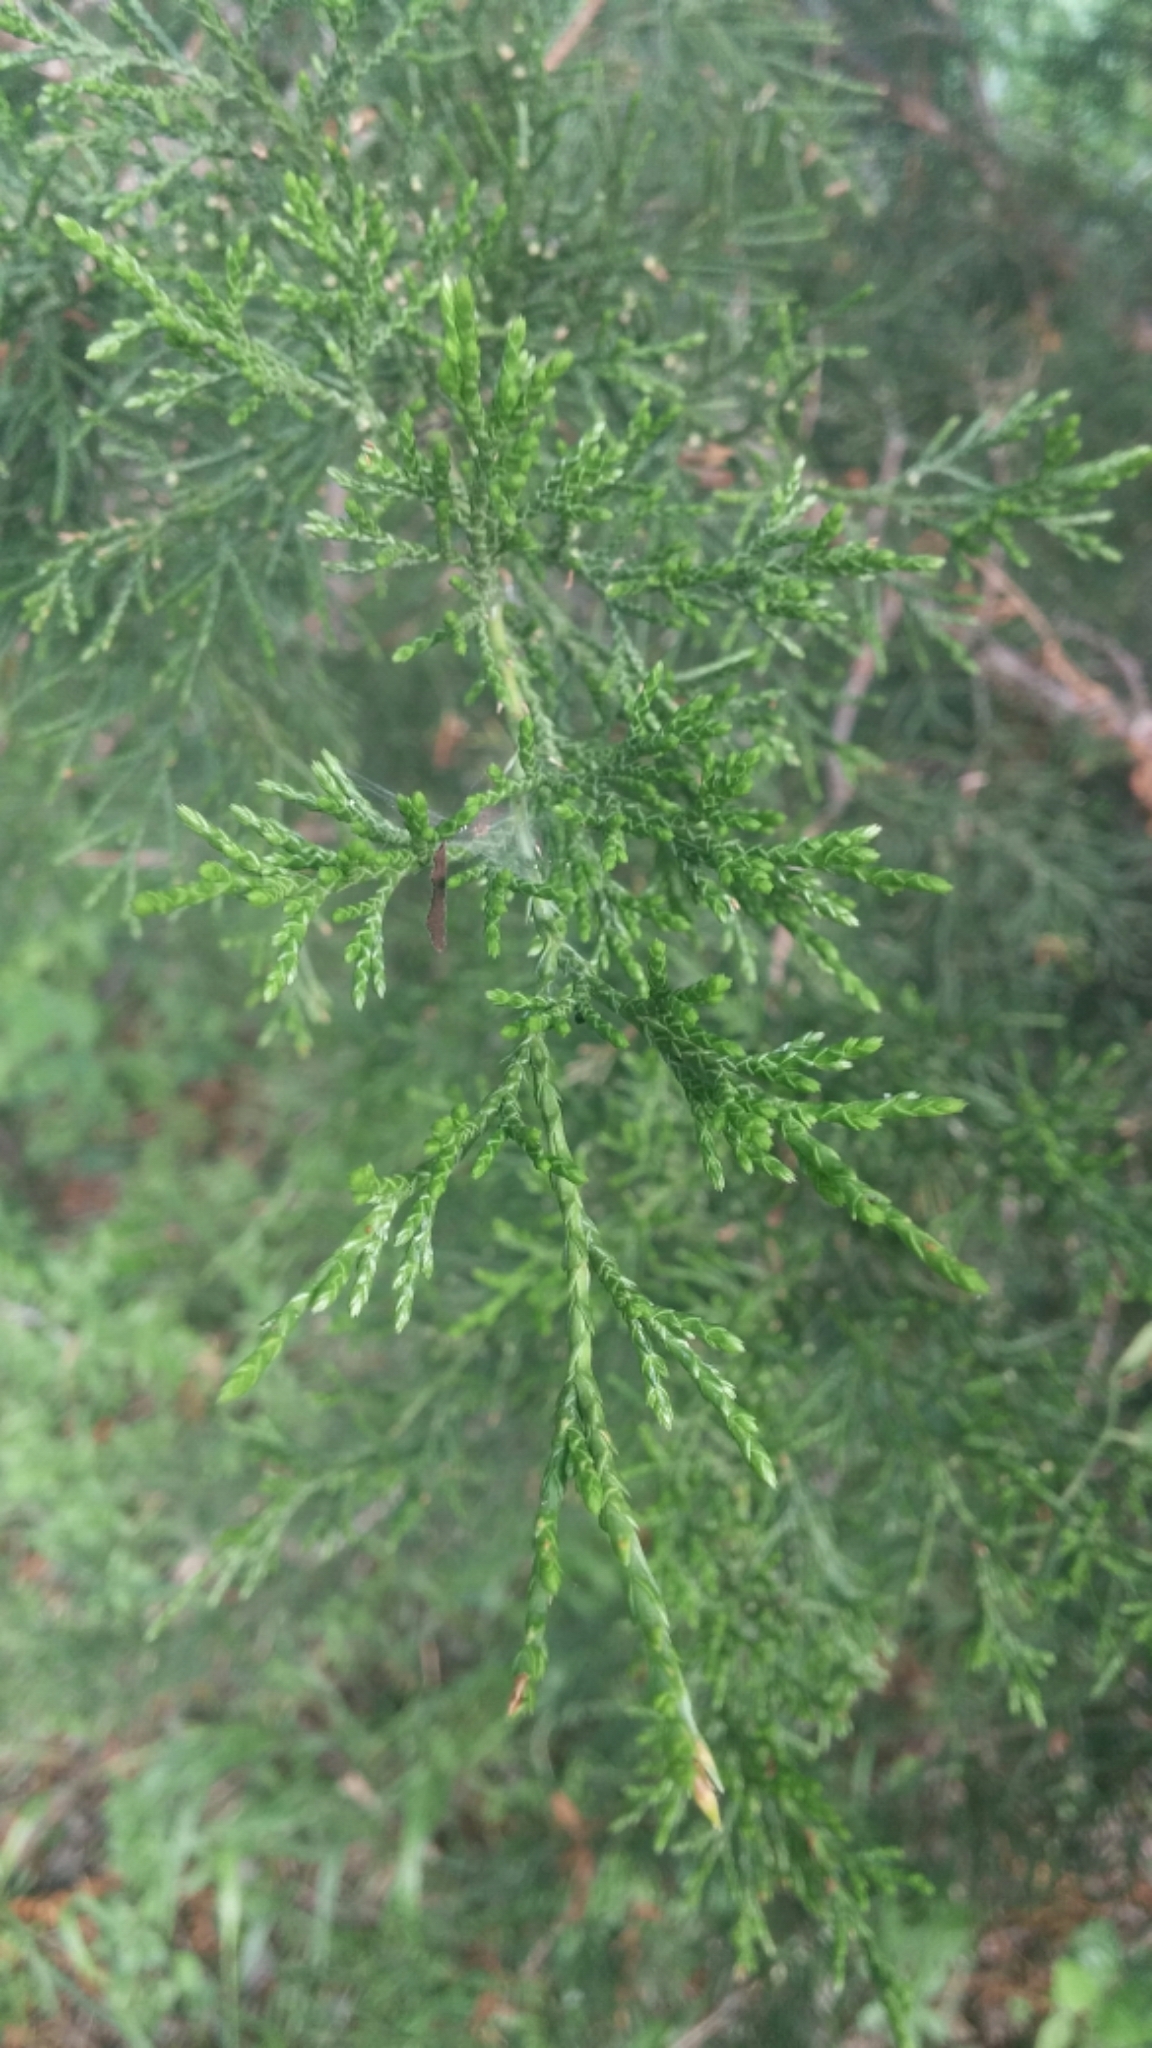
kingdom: Plantae
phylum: Tracheophyta
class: Pinopsida
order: Pinales
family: Cupressaceae
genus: Juniperus
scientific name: Juniperus virginiana
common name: Red juniper
